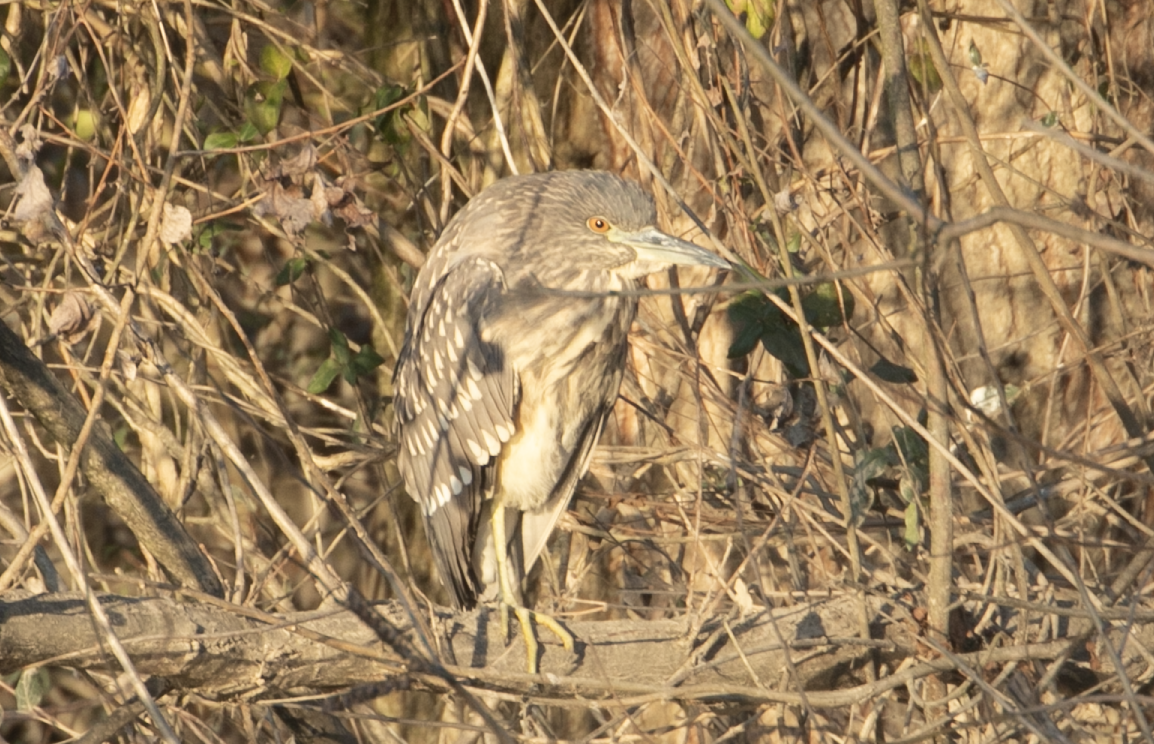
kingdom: Animalia
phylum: Chordata
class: Aves
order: Pelecaniformes
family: Ardeidae
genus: Nycticorax
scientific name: Nycticorax nycticorax
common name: Black-crowned night heron
